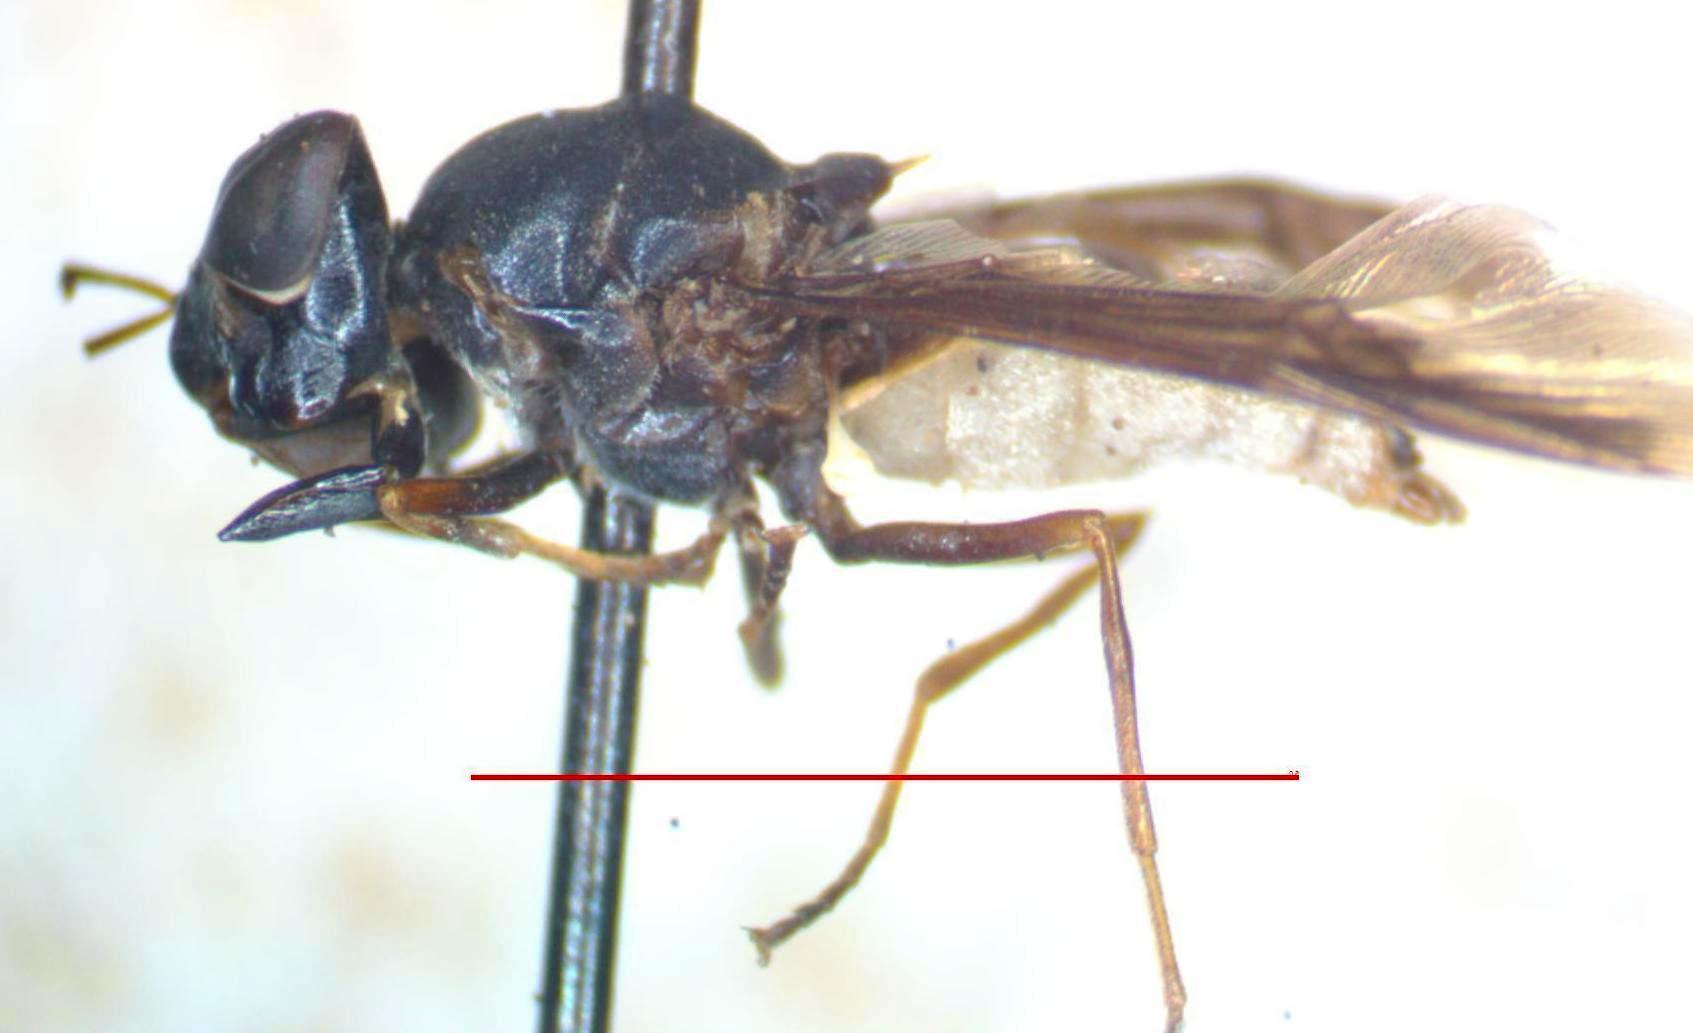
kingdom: Animalia
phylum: Arthropoda
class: Insecta
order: Diptera
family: Stratiomyidae
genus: Hoplitimyia
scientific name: Hoplitimyia subalba
